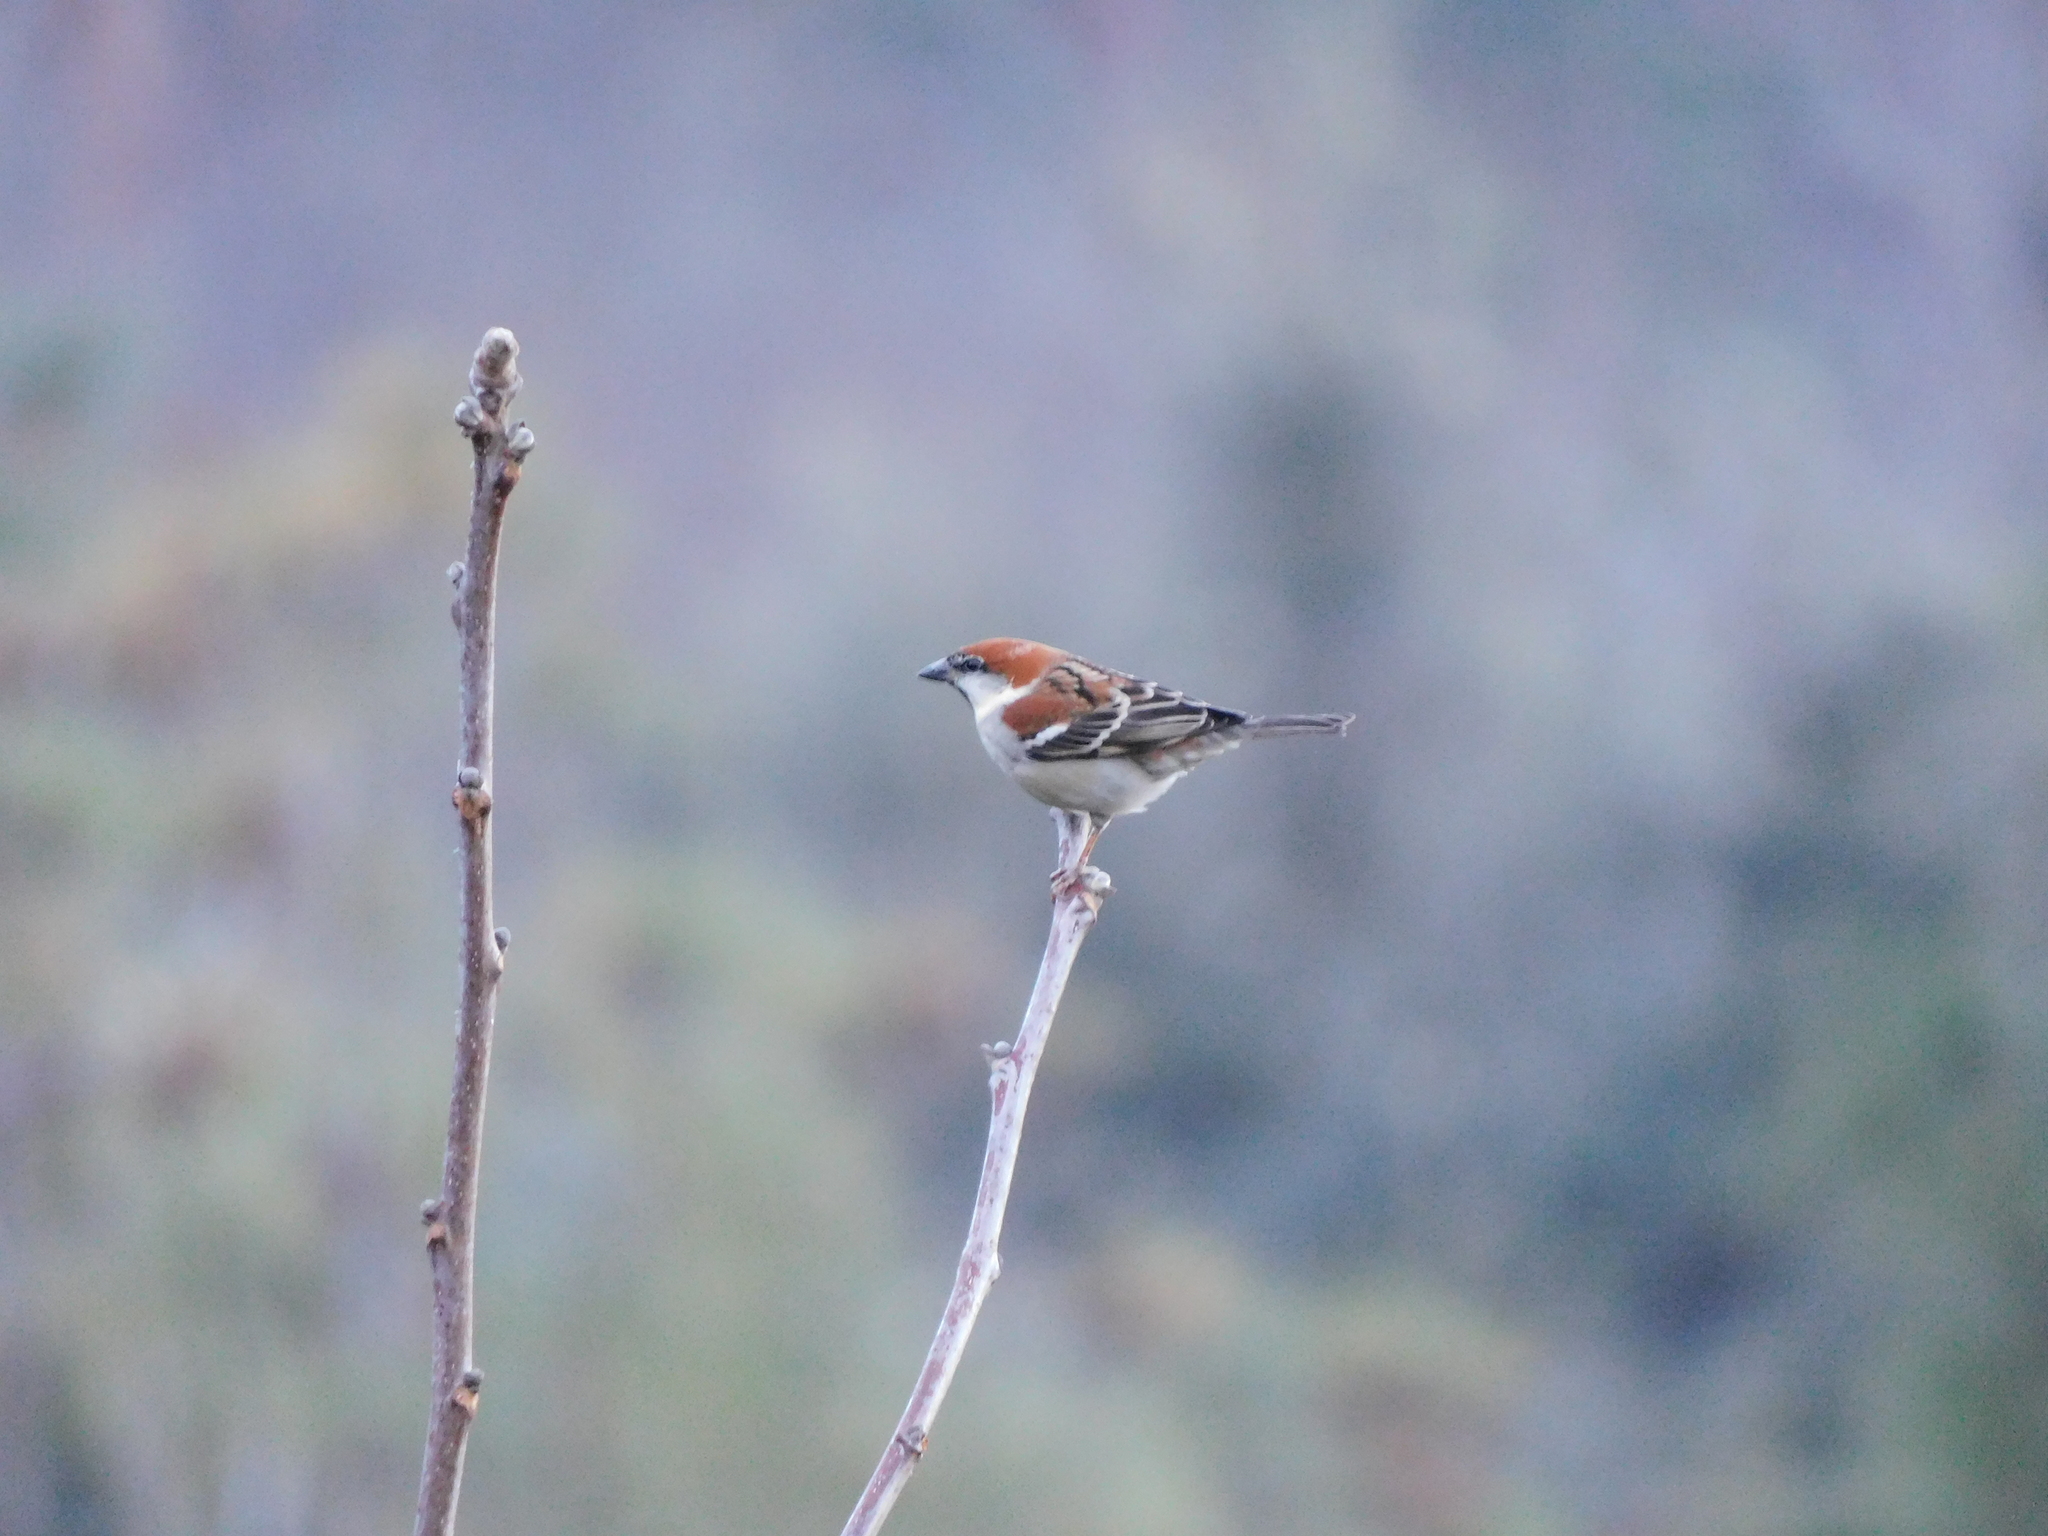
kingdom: Animalia
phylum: Chordata
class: Aves
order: Passeriformes
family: Passeridae
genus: Passer
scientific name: Passer cinnamomeus
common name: Russet sparrow
